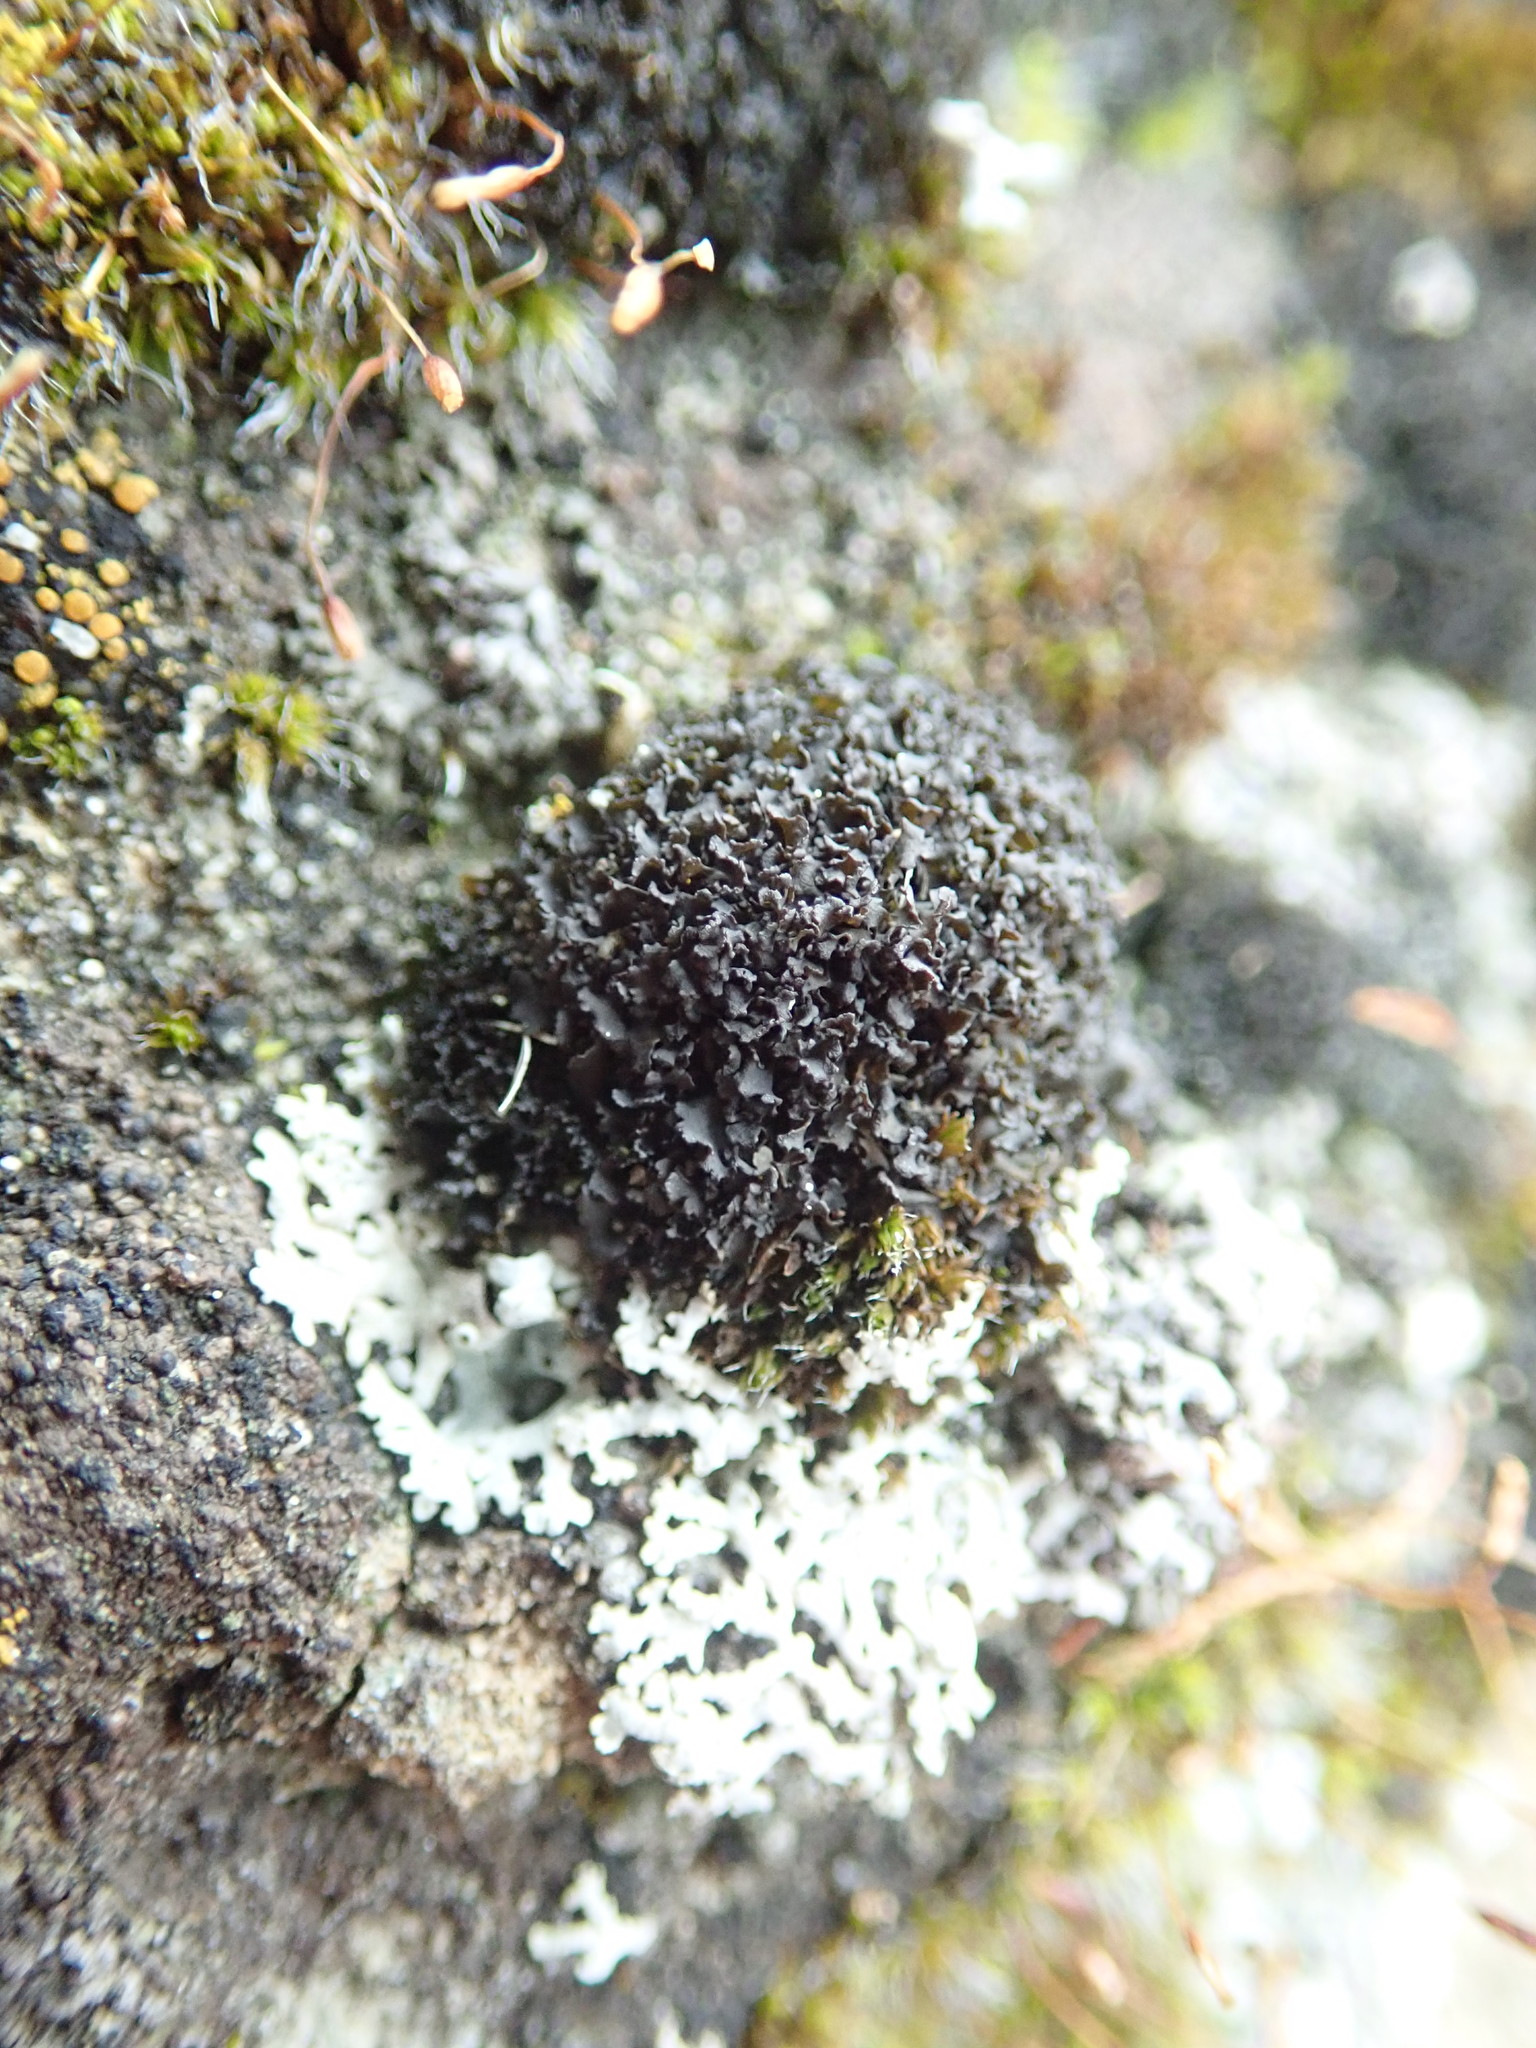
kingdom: Fungi
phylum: Ascomycota
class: Lecanoromycetes
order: Peltigerales
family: Collemataceae
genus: Scytinium
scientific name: Scytinium lichenoides
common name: Tattered jellyskin lichen
